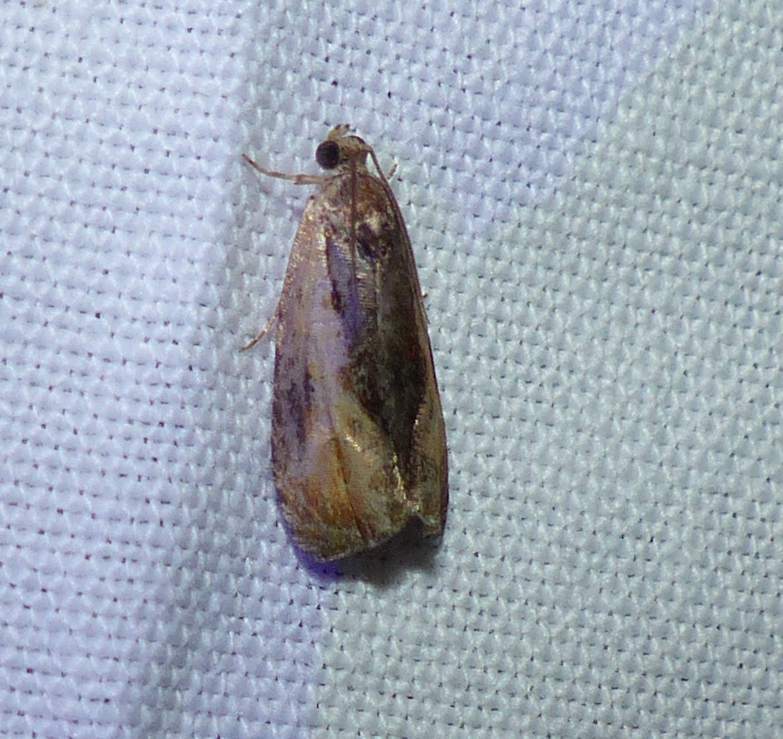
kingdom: Animalia
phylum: Arthropoda
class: Insecta
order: Lepidoptera
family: Tortricidae
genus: Olethreutes
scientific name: Olethreutes nigranum
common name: Variable nigranum moth
